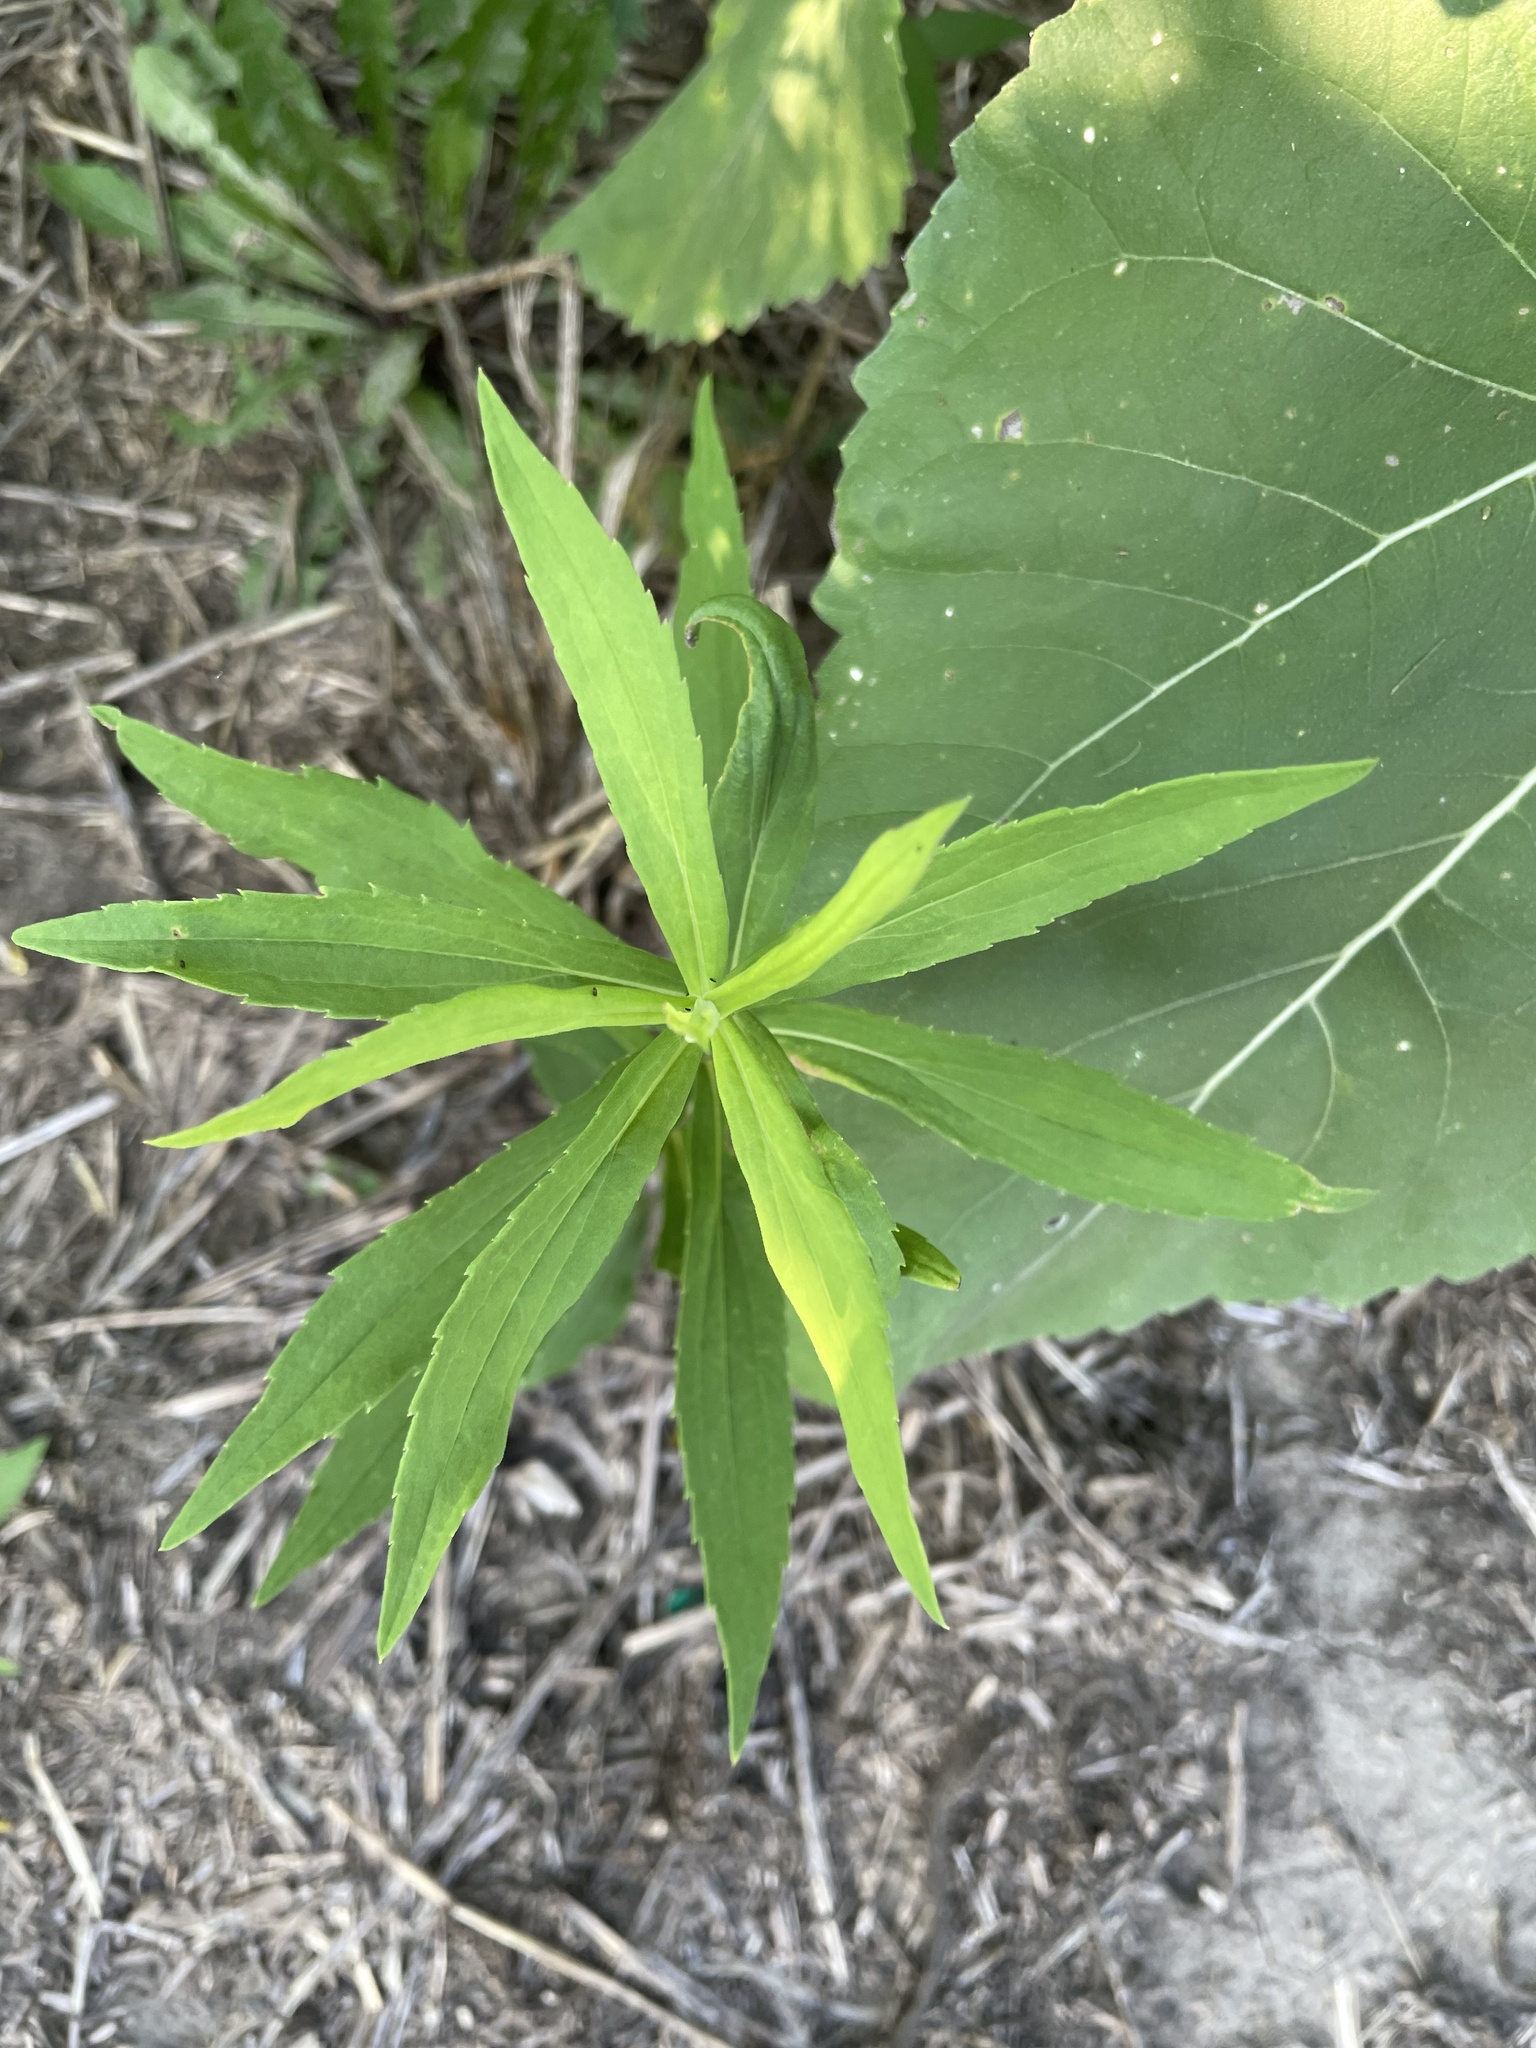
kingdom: Plantae
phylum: Tracheophyta
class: Magnoliopsida
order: Asterales
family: Asteraceae
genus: Solidago
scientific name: Solidago canadensis
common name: Canada goldenrod
